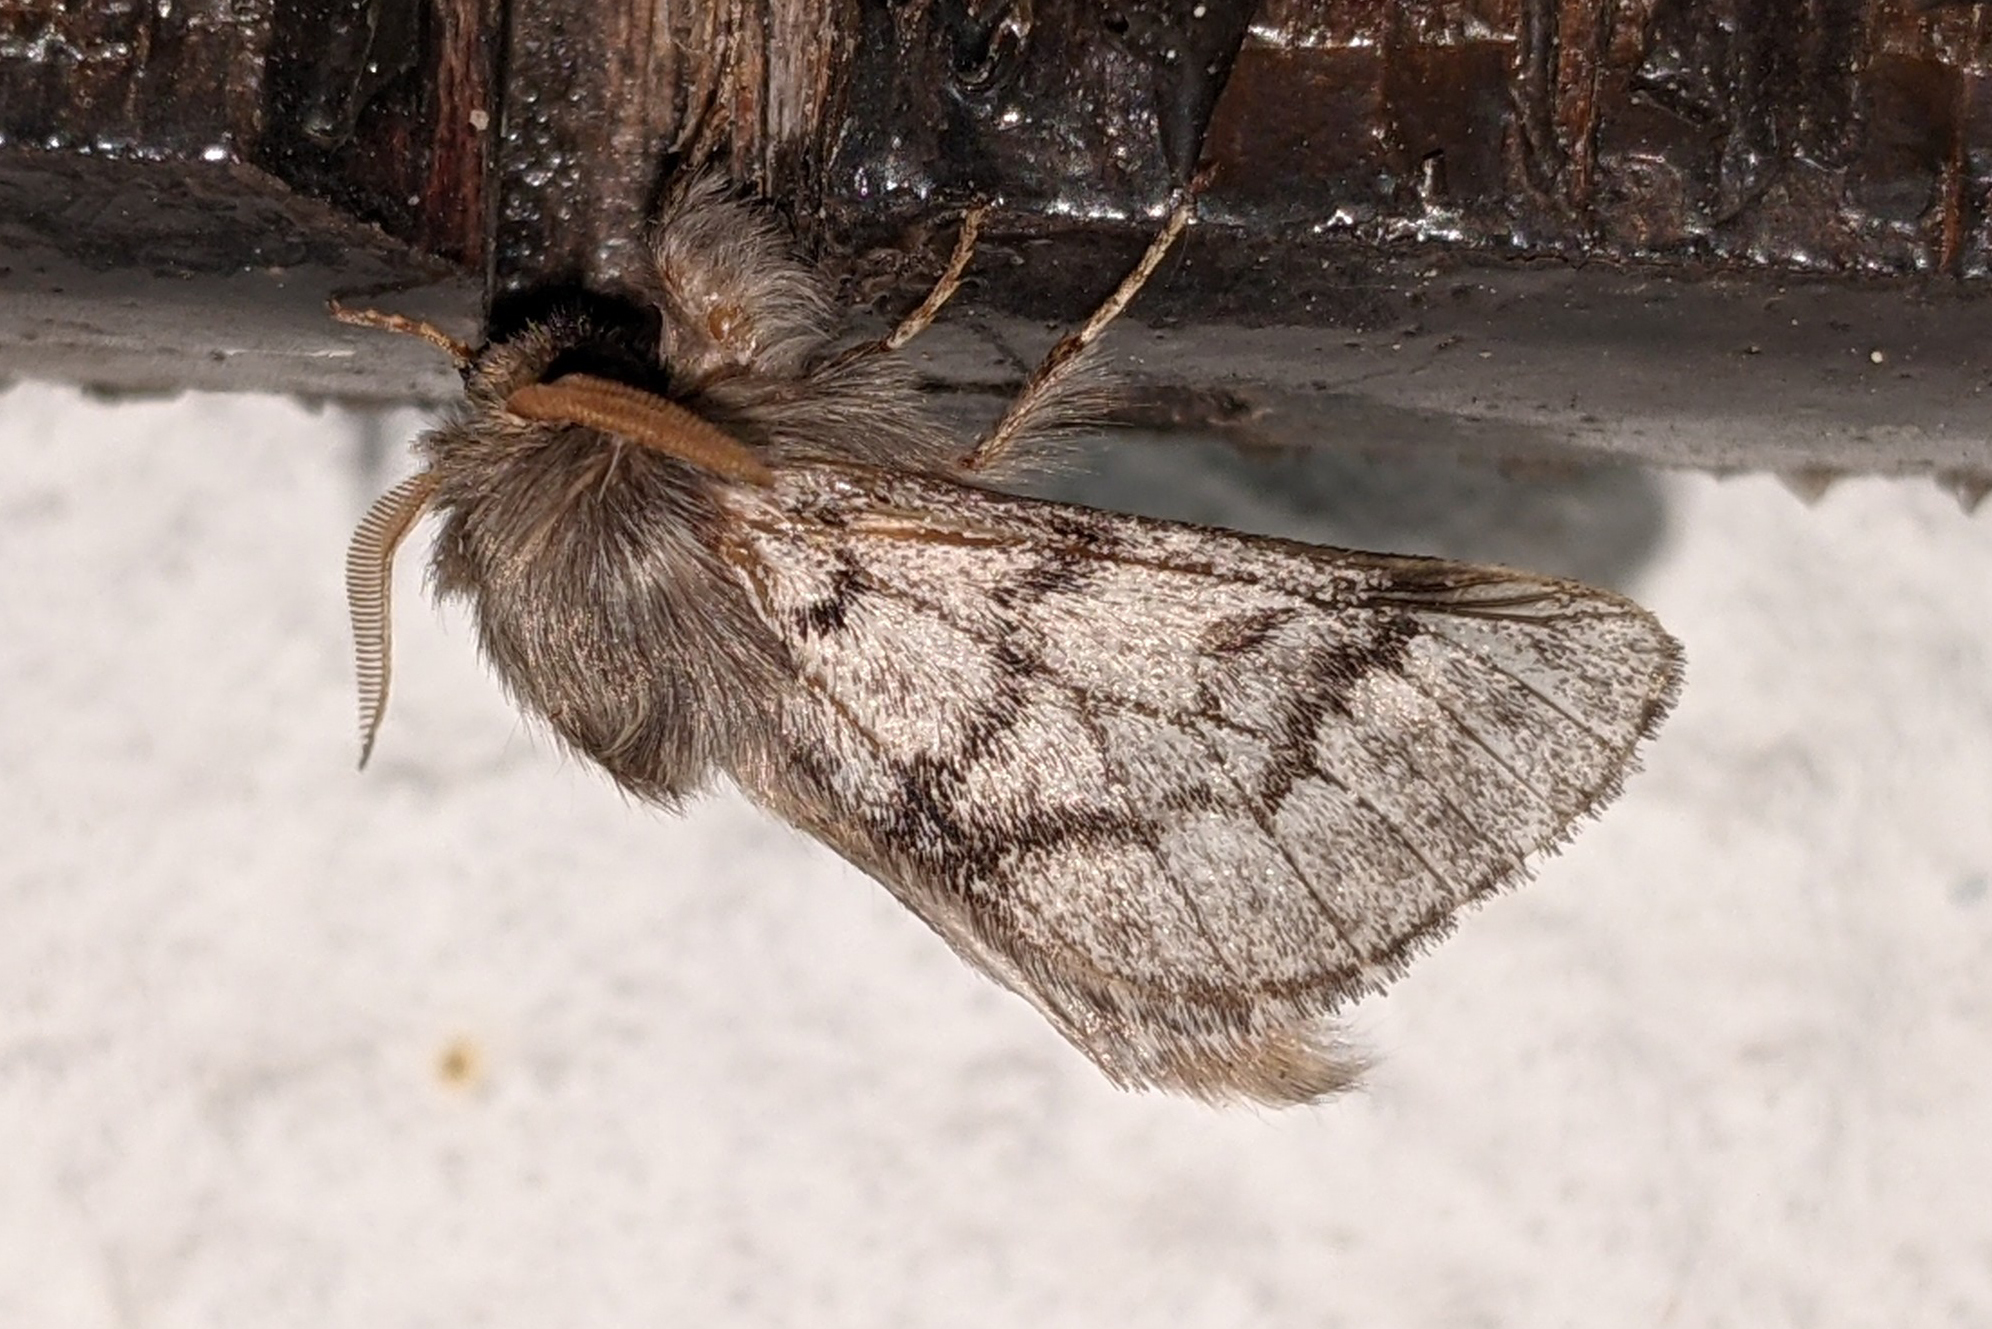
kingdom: Animalia
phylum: Arthropoda
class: Insecta
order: Lepidoptera
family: Notodontidae
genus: Thaumetopoea
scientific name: Thaumetopoea pityocampa
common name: Pine processionary
